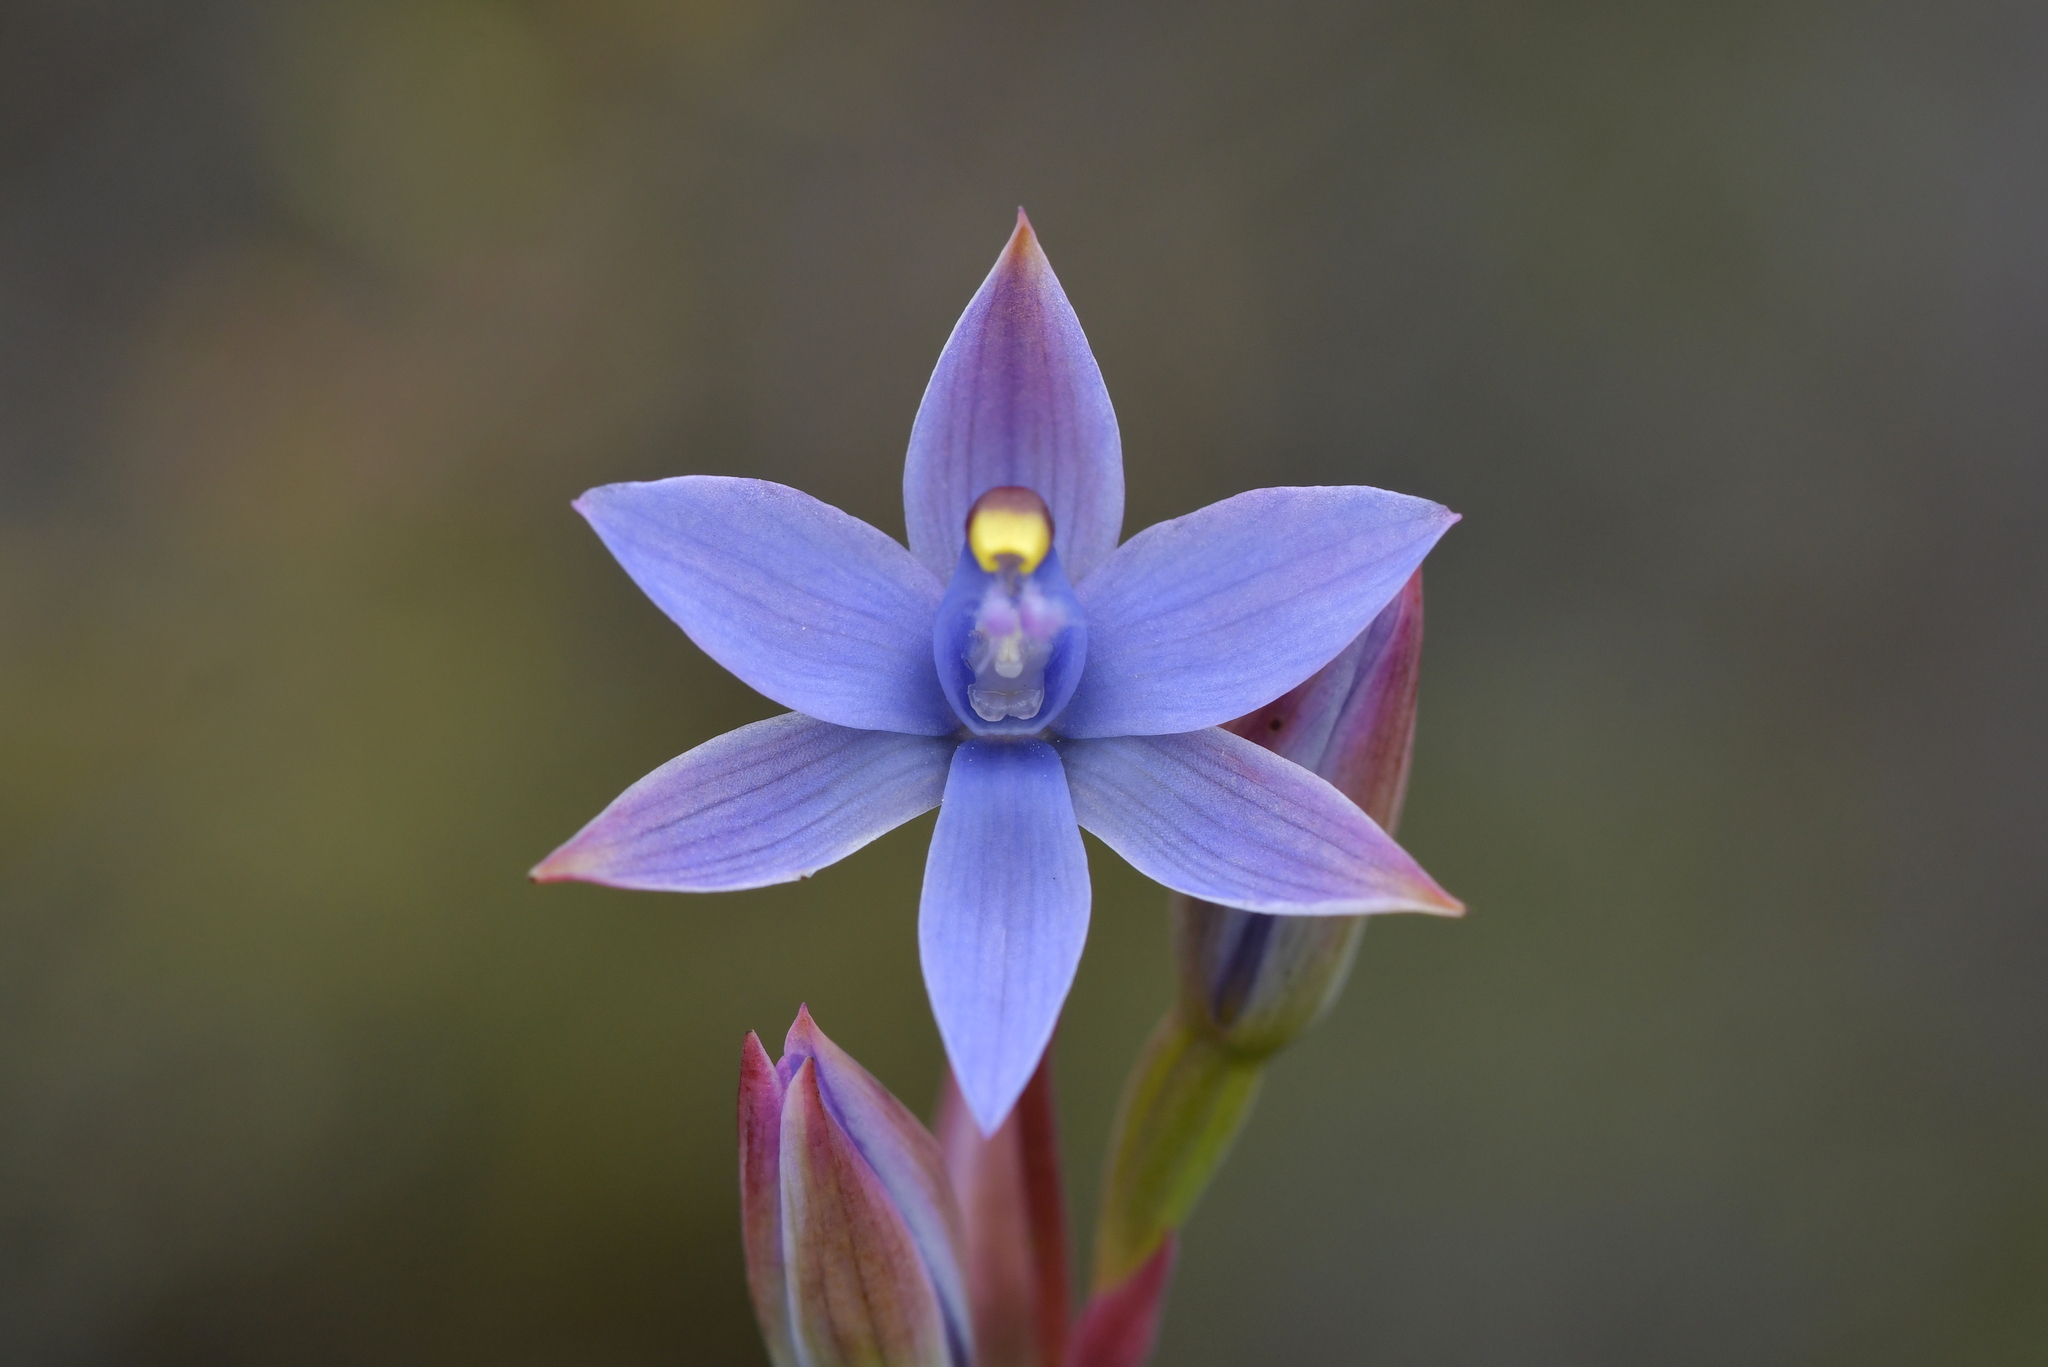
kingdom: Plantae
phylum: Tracheophyta
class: Liliopsida
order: Asparagales
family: Orchidaceae
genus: Thelymitra
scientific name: Thelymitra malvina
